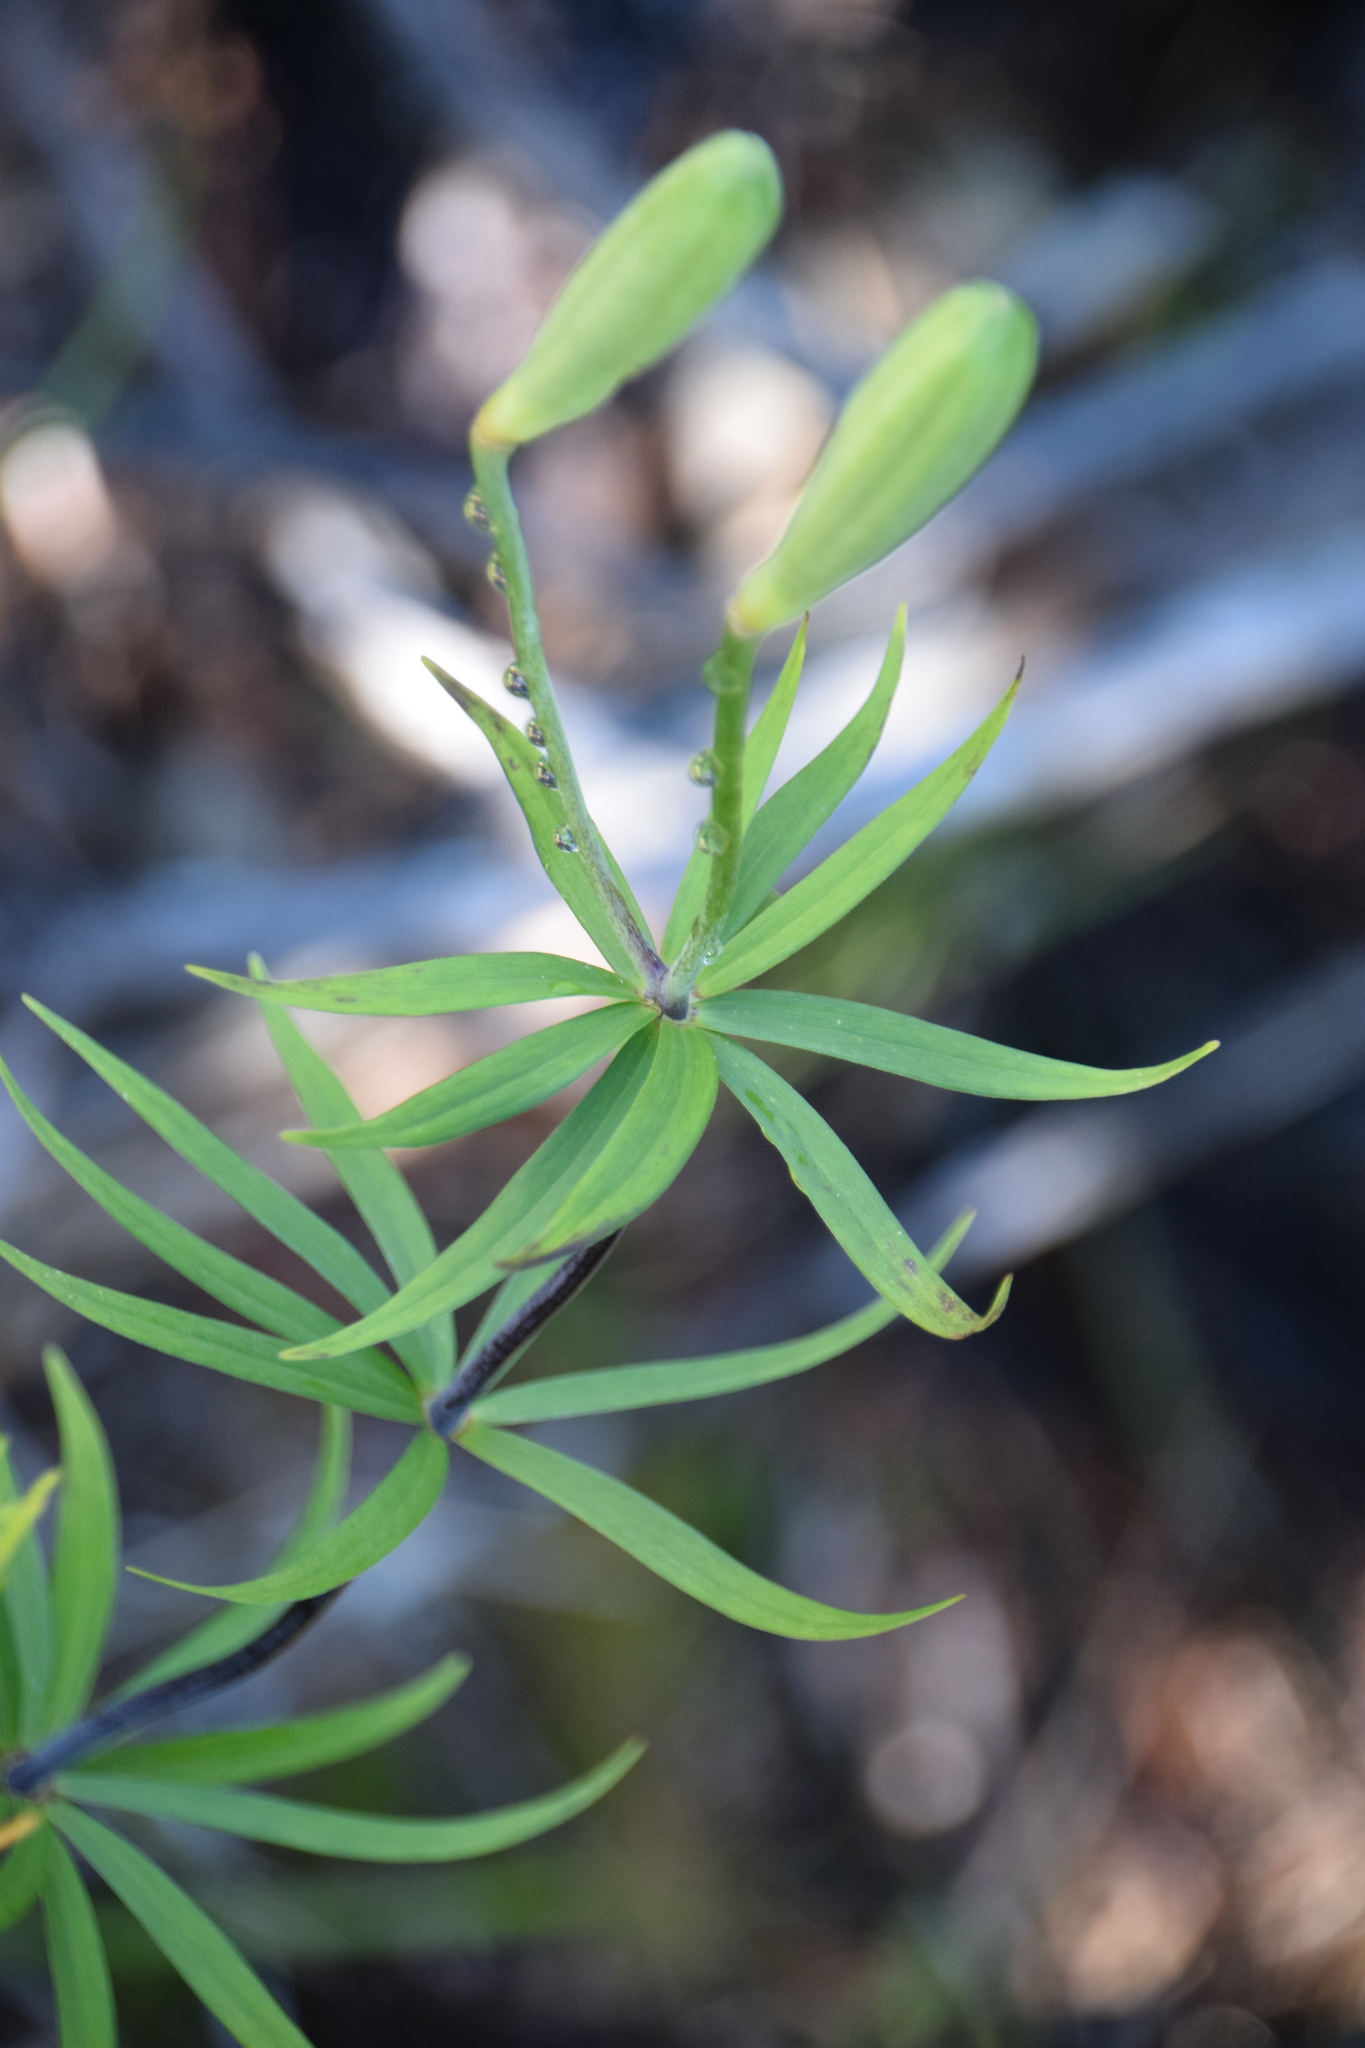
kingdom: Plantae
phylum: Tracheophyta
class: Liliopsida
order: Liliales
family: Liliaceae
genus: Lilium
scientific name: Lilium philadelphicum
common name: Red lily
